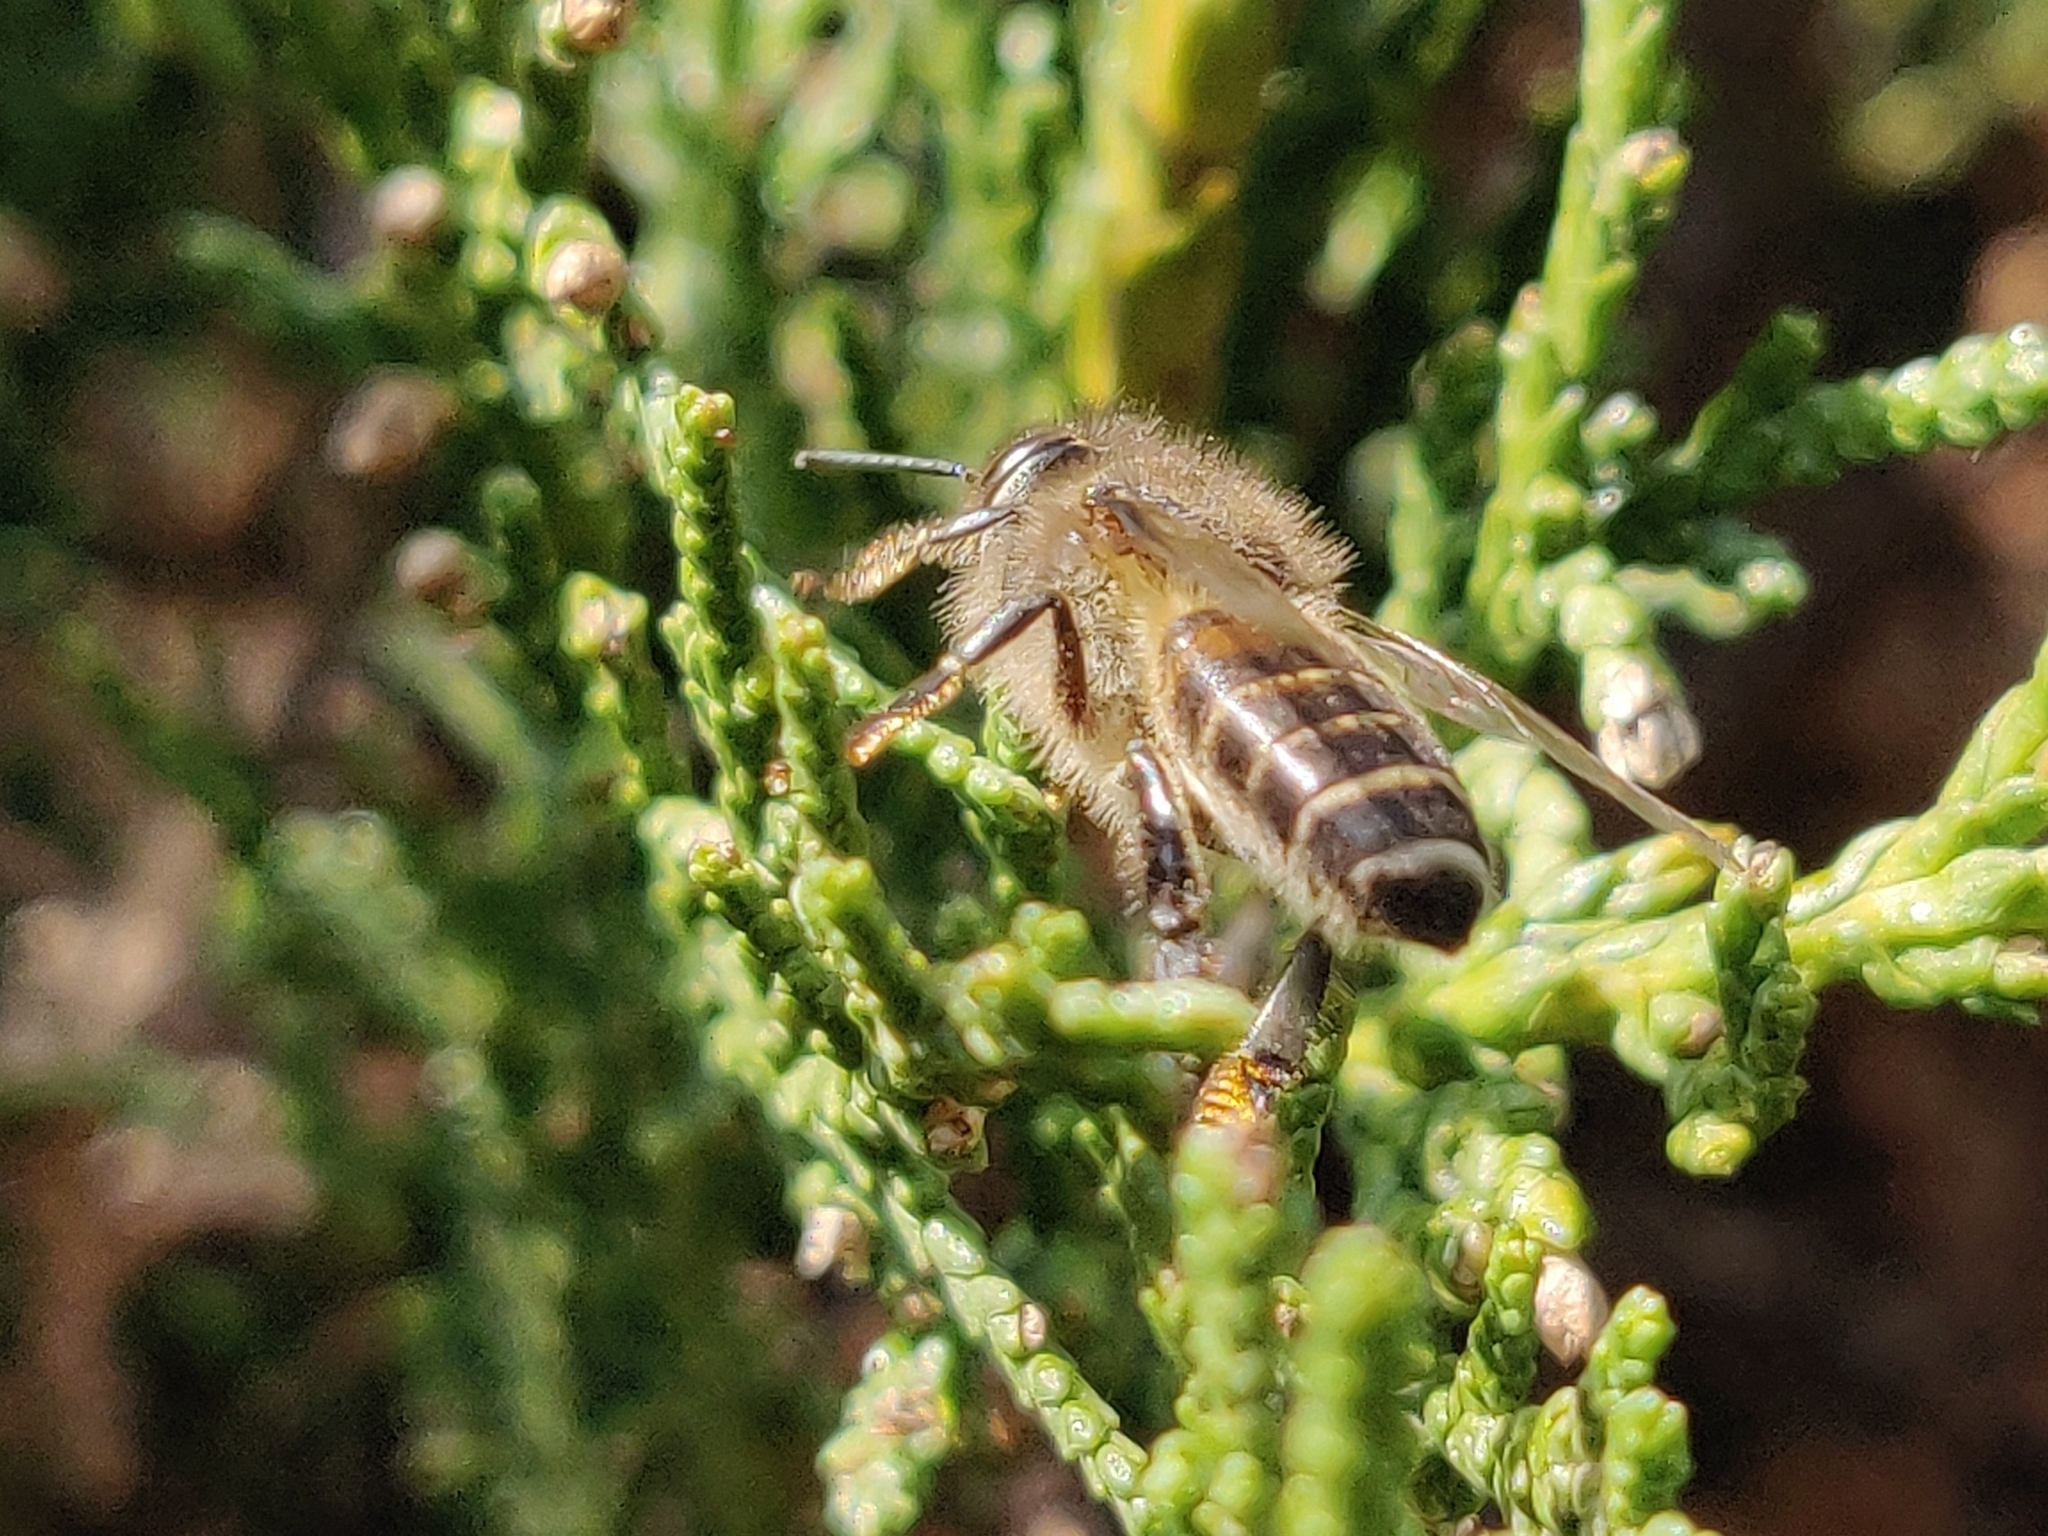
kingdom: Animalia
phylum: Arthropoda
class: Insecta
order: Hymenoptera
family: Apidae
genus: Apis
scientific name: Apis cerana
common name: Honey bee
